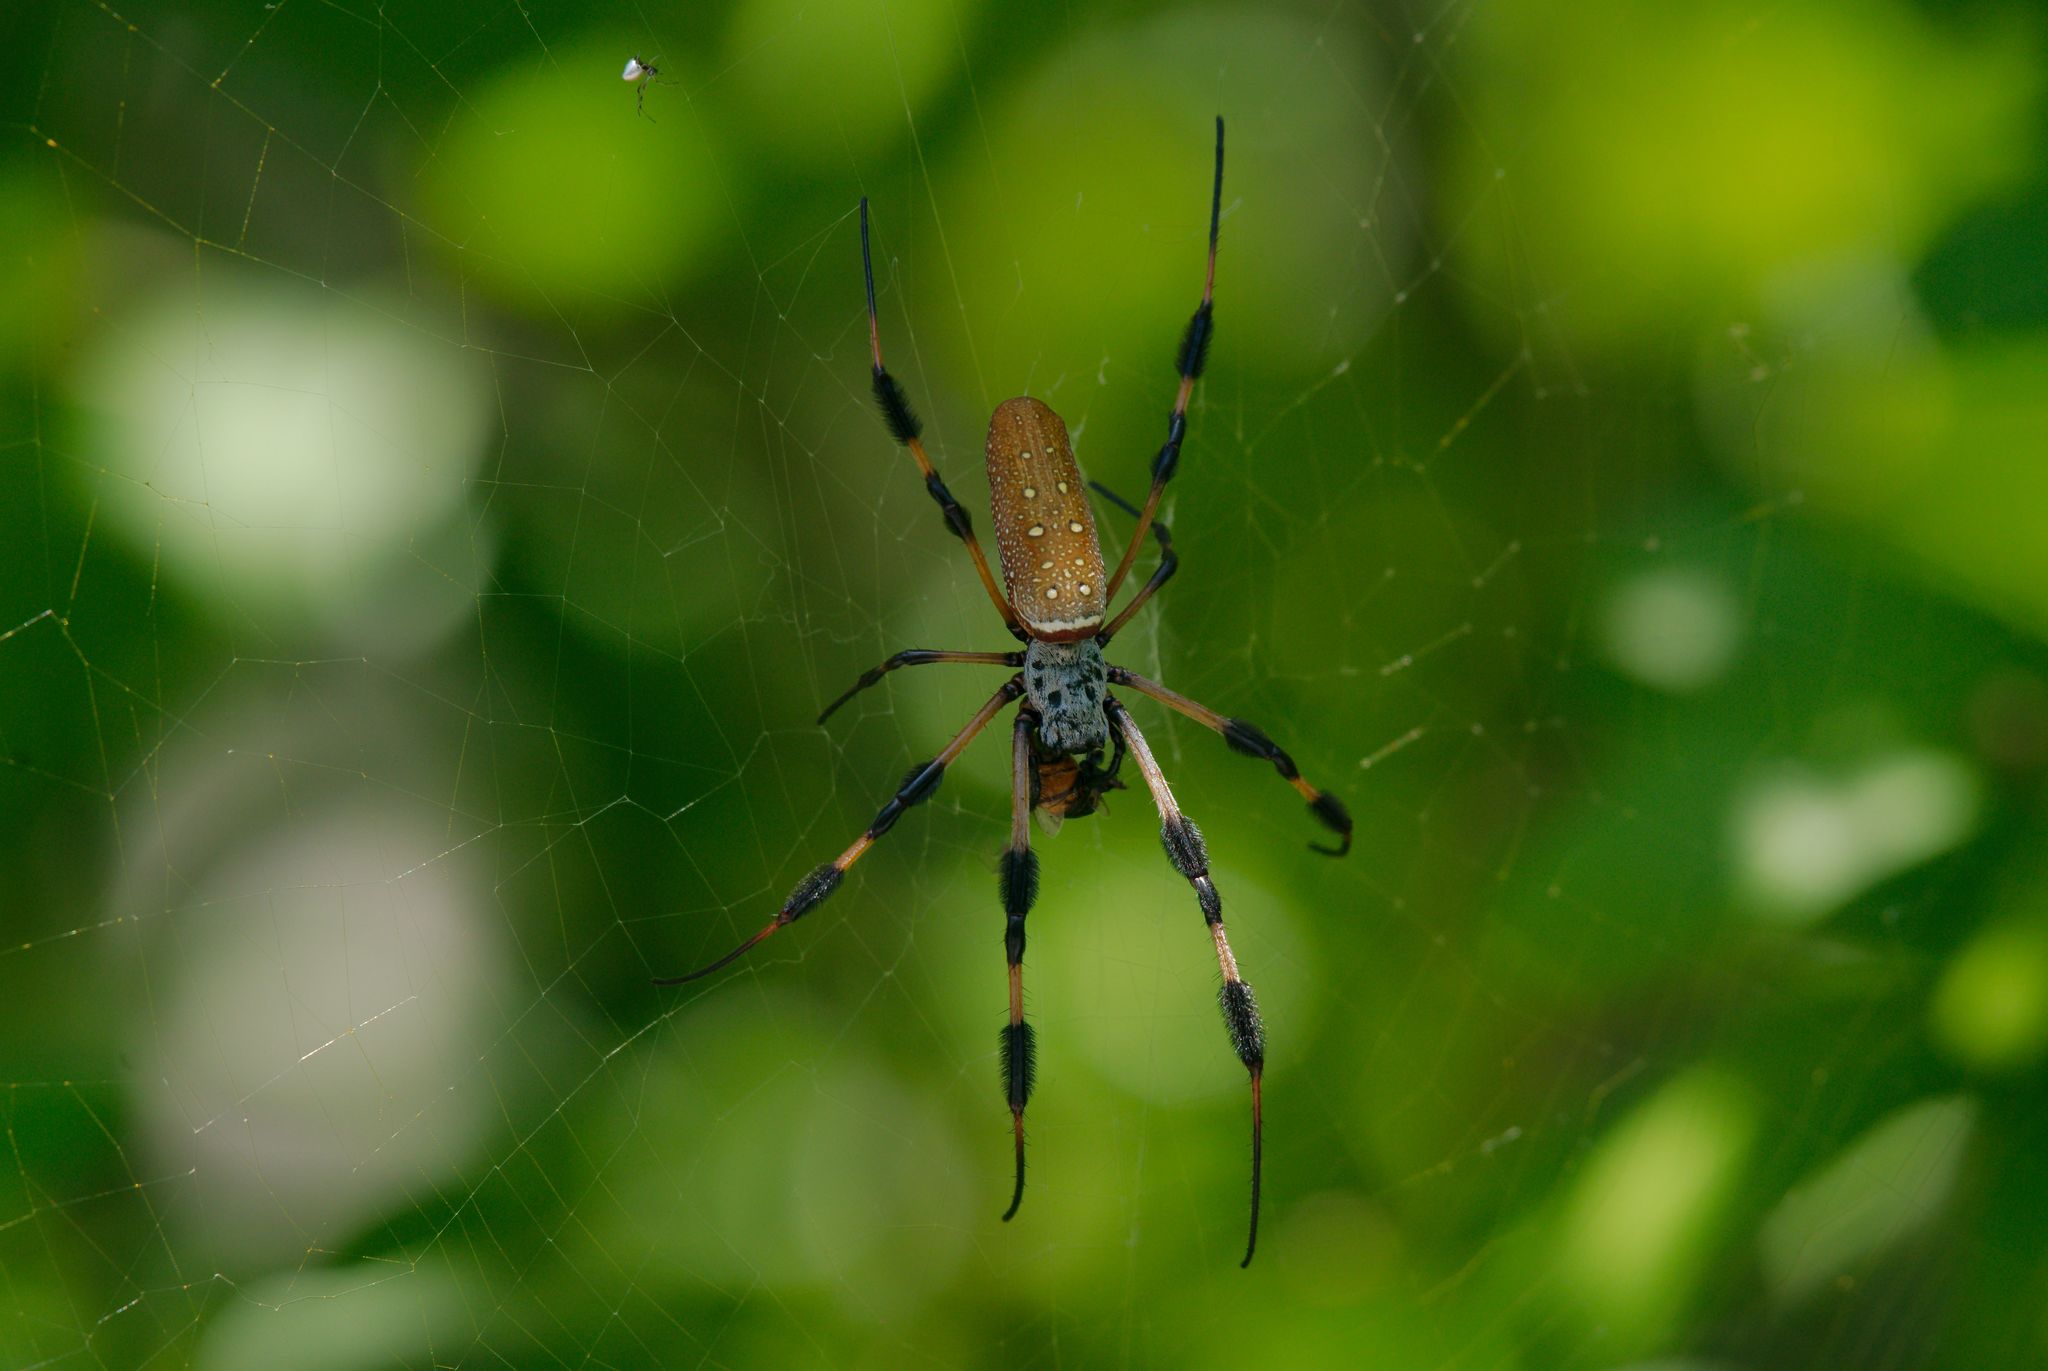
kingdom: Animalia
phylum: Arthropoda
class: Arachnida
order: Araneae
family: Araneidae
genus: Trichonephila
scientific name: Trichonephila clavipes
